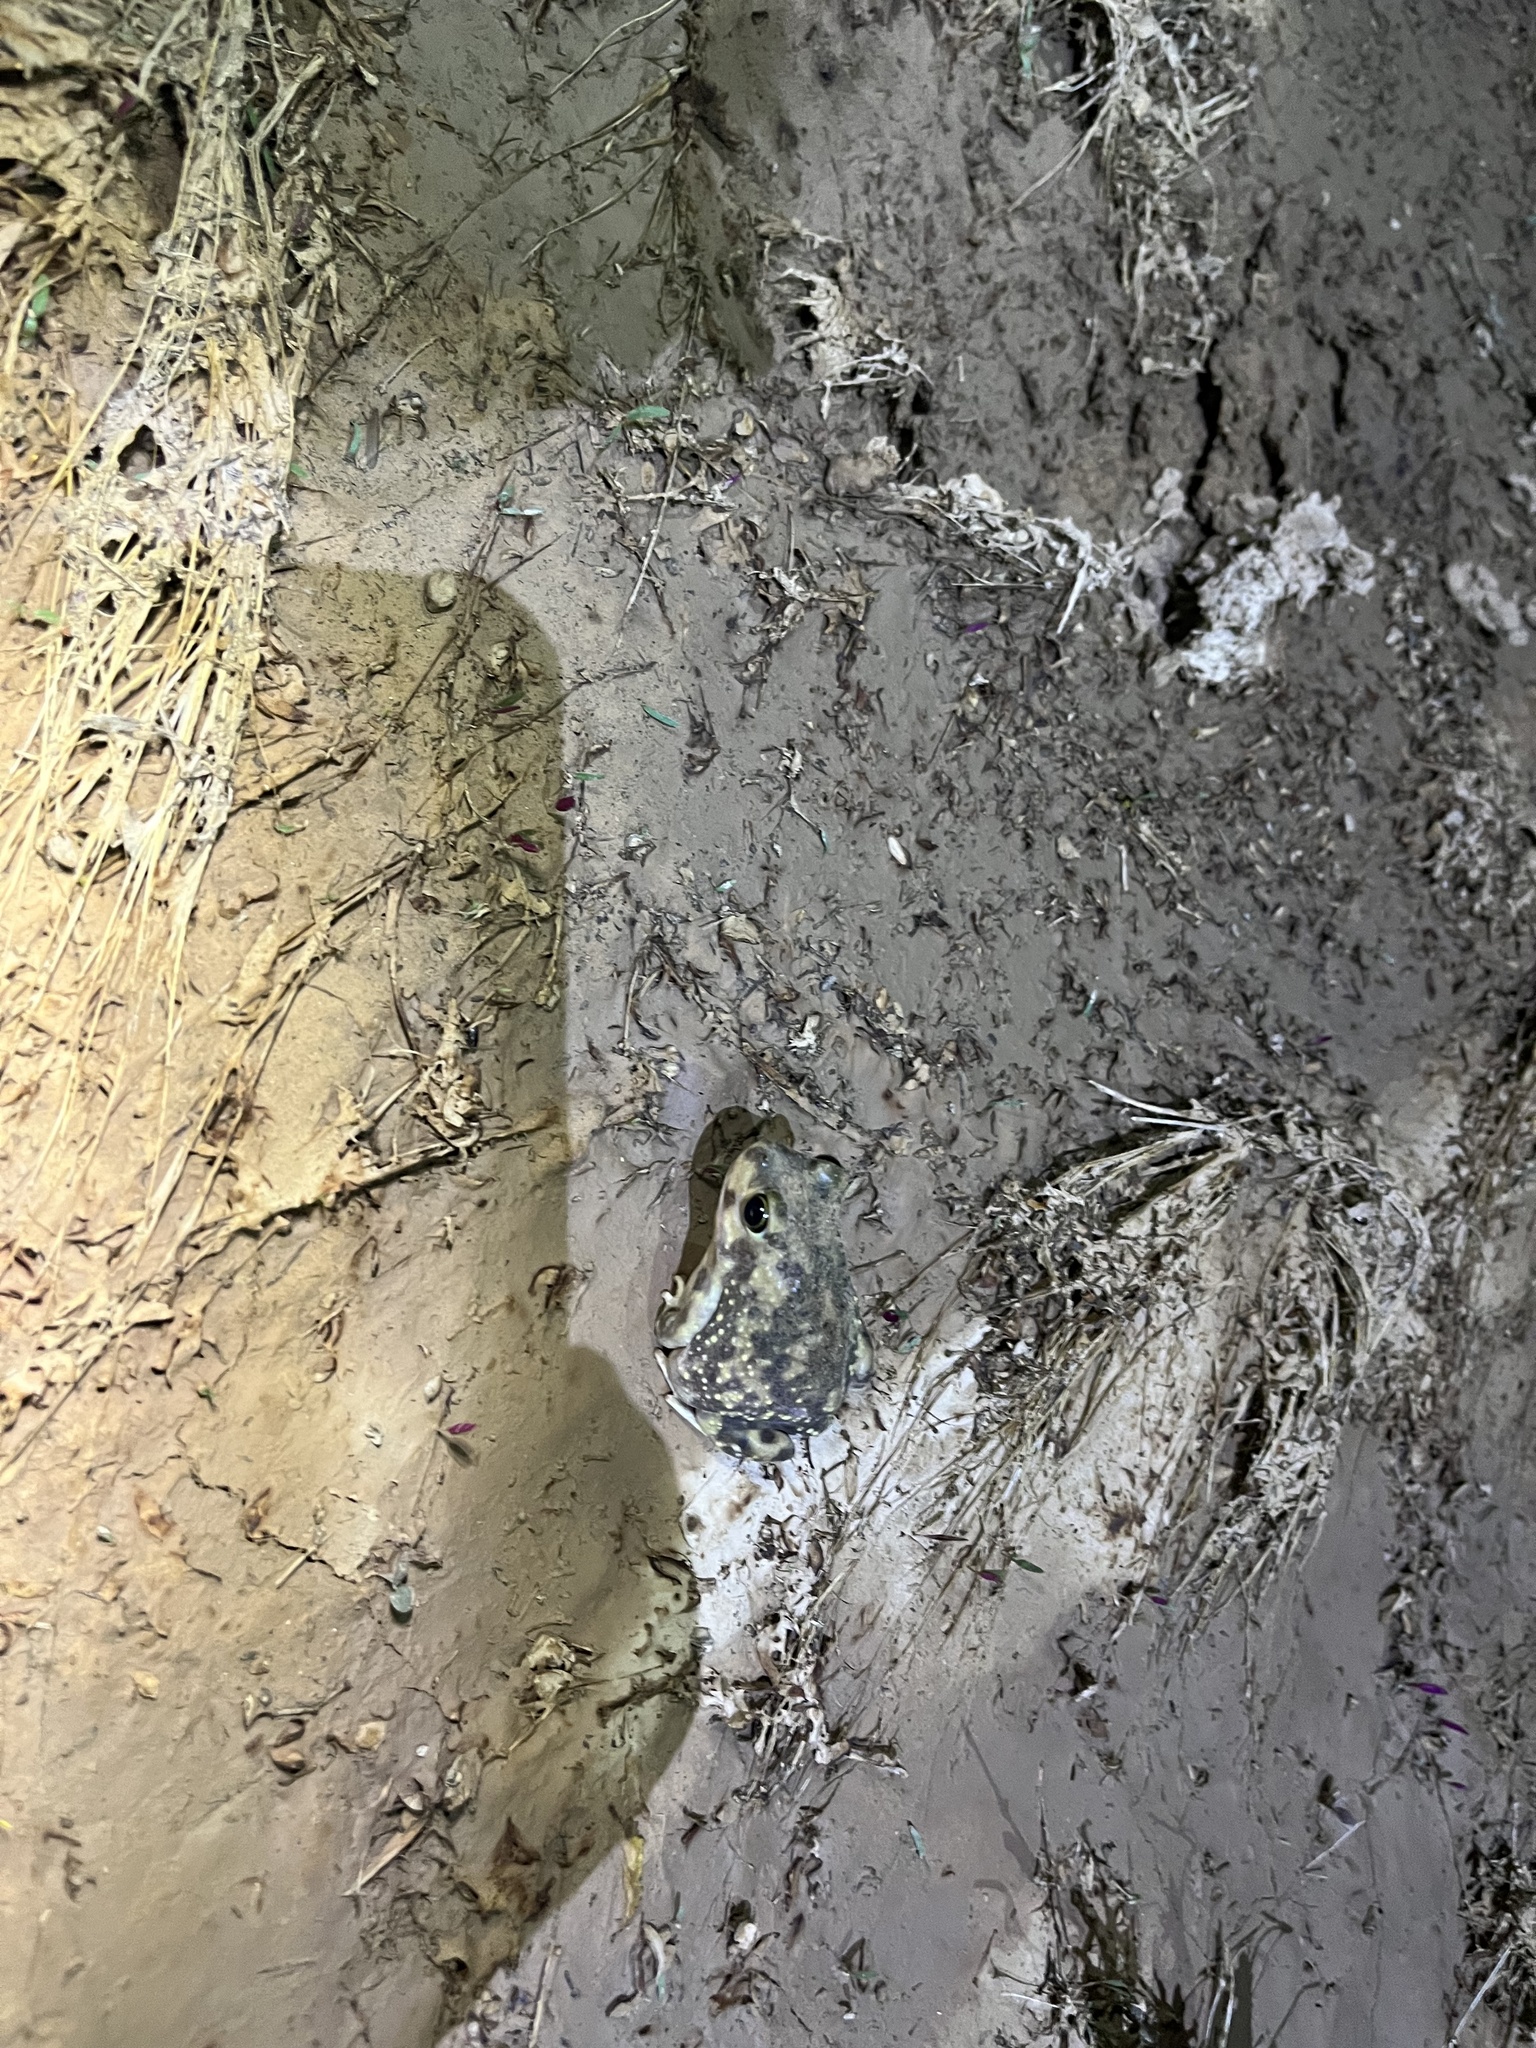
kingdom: Animalia
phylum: Chordata
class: Amphibia
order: Anura
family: Scaphiopodidae
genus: Scaphiopus
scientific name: Scaphiopus couchii
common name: Couch's spadefoot toad
